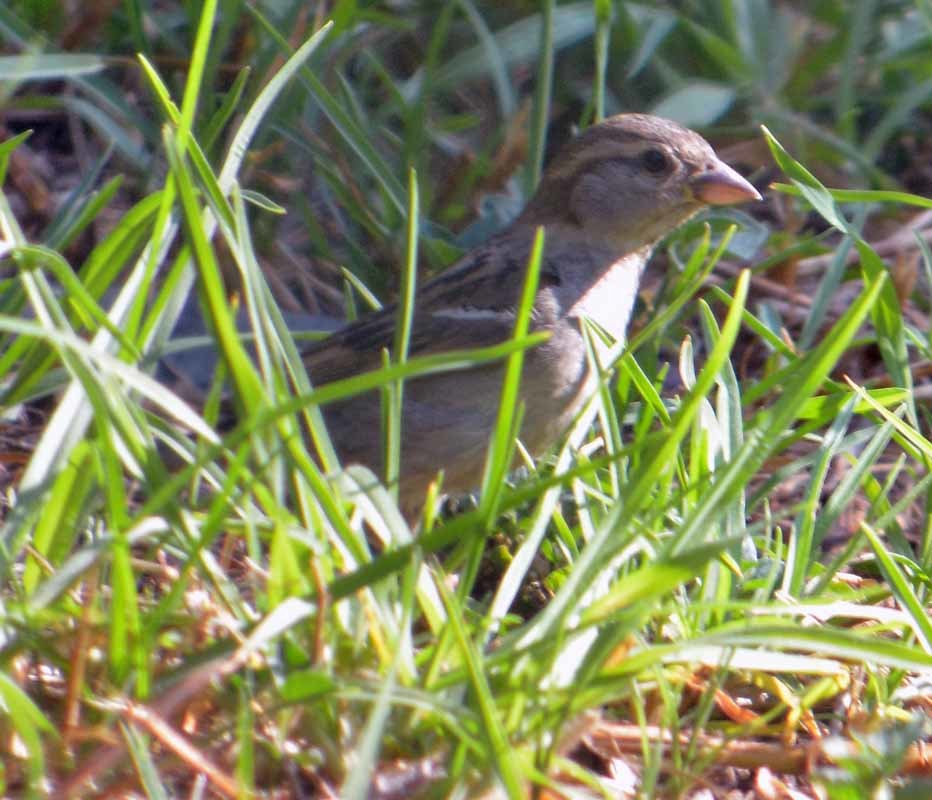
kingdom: Animalia
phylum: Chordata
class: Aves
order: Passeriformes
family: Passeridae
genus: Passer
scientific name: Passer domesticus
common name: House sparrow
